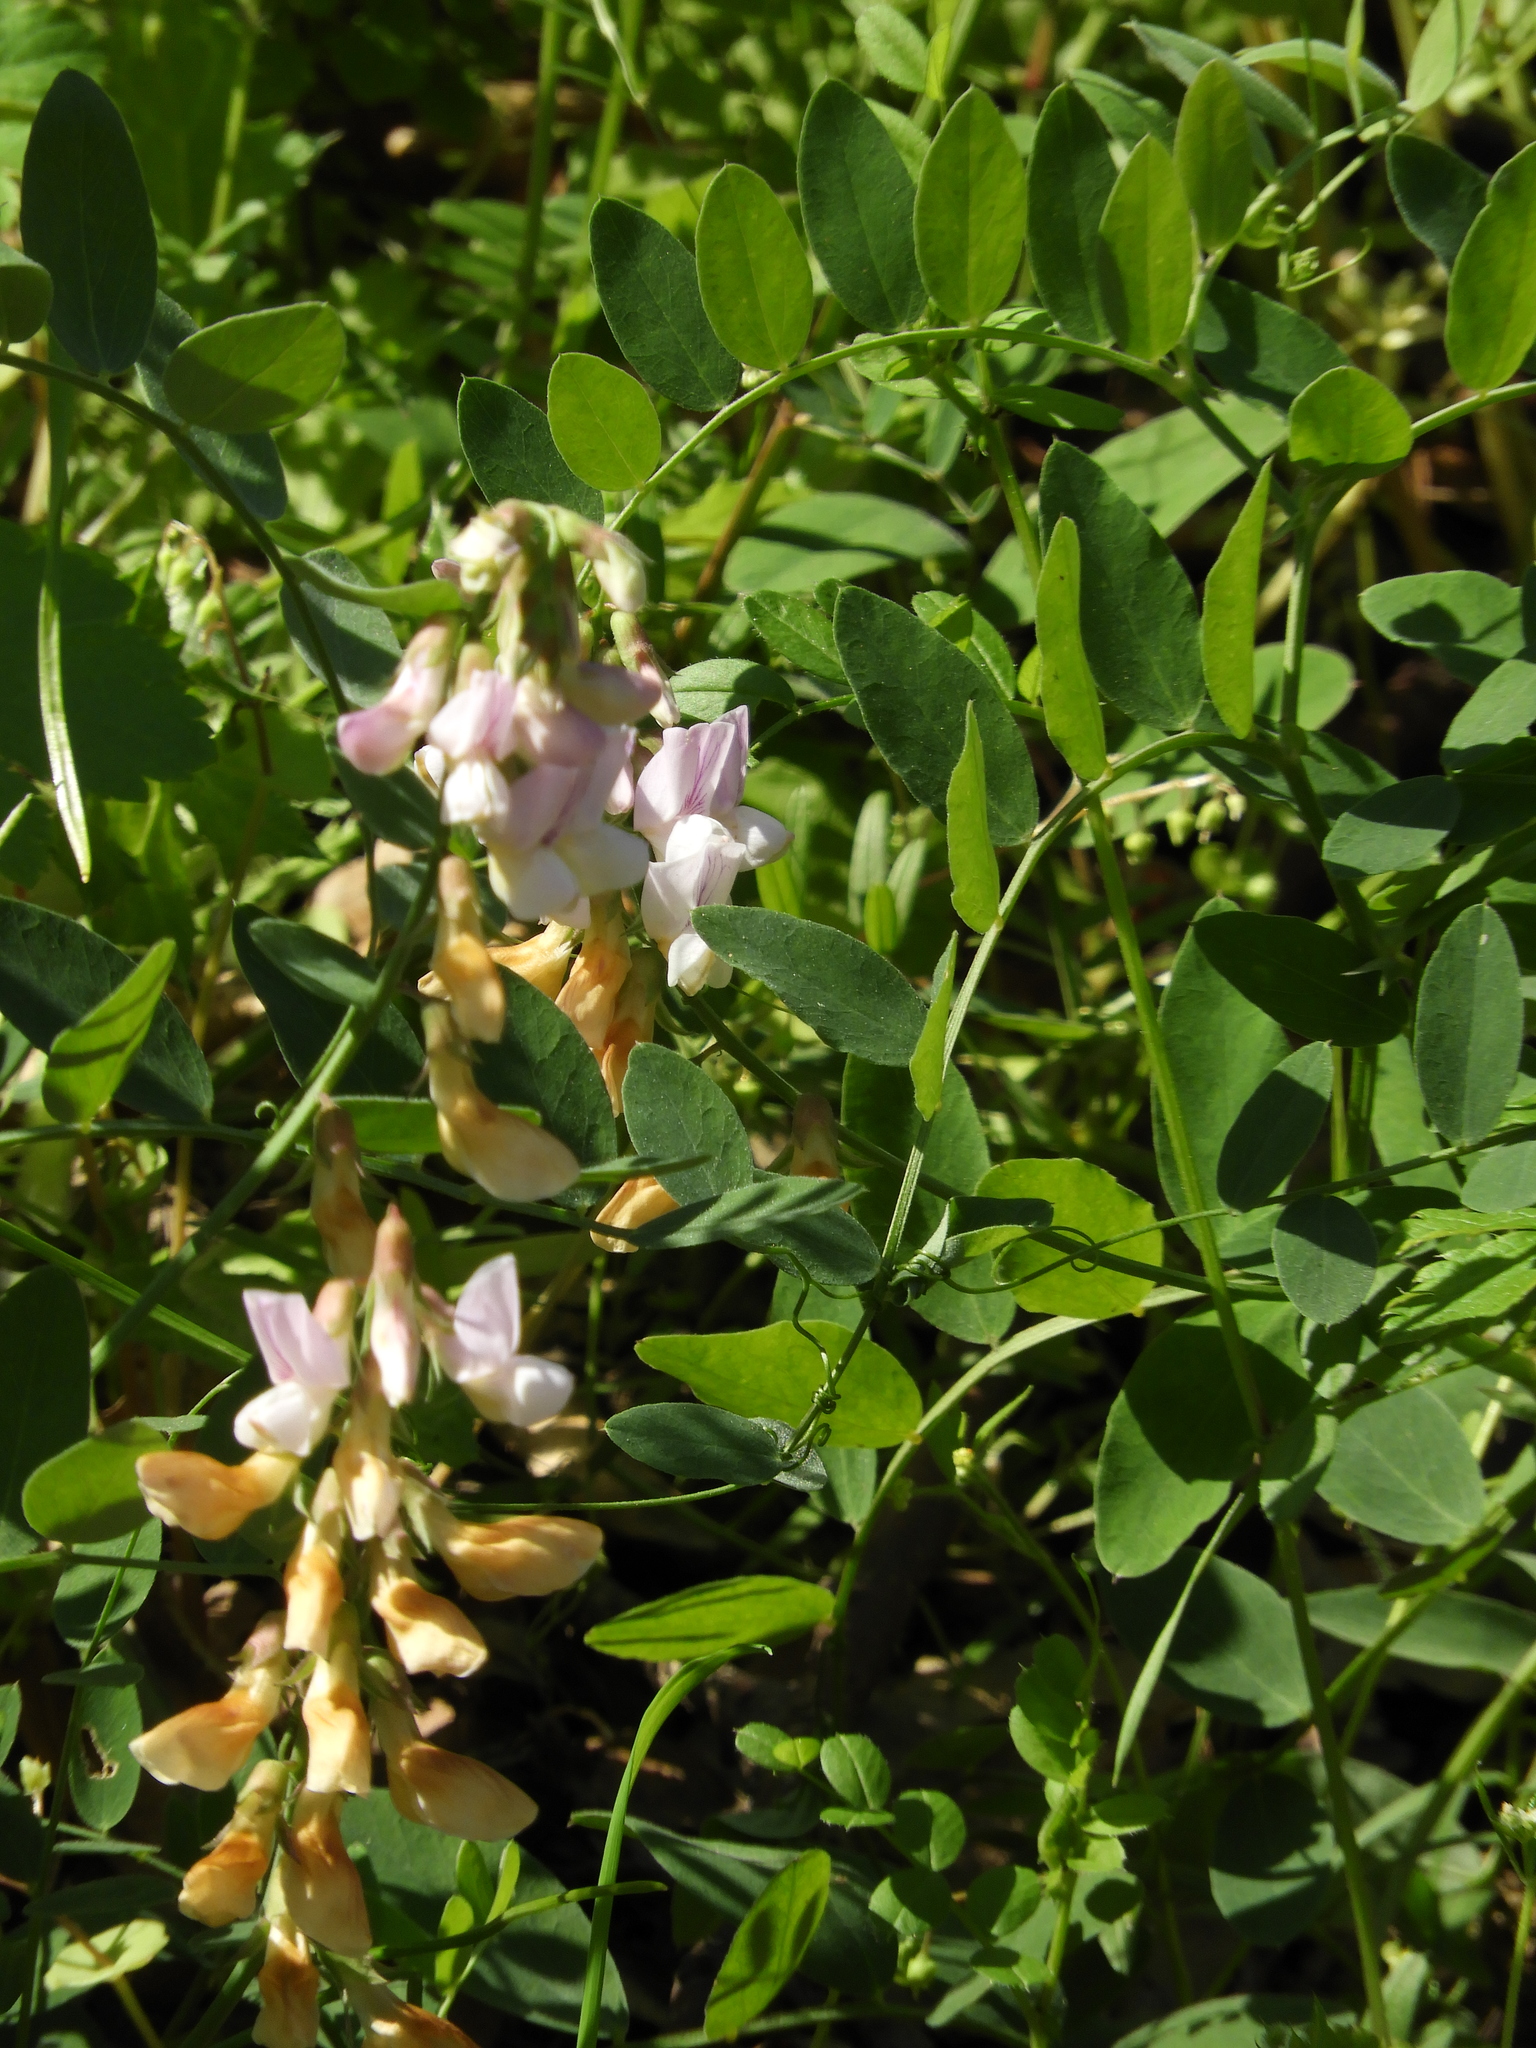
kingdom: Plantae
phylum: Tracheophyta
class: Magnoliopsida
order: Fabales
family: Fabaceae
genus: Lathyrus
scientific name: Lathyrus vestitus
